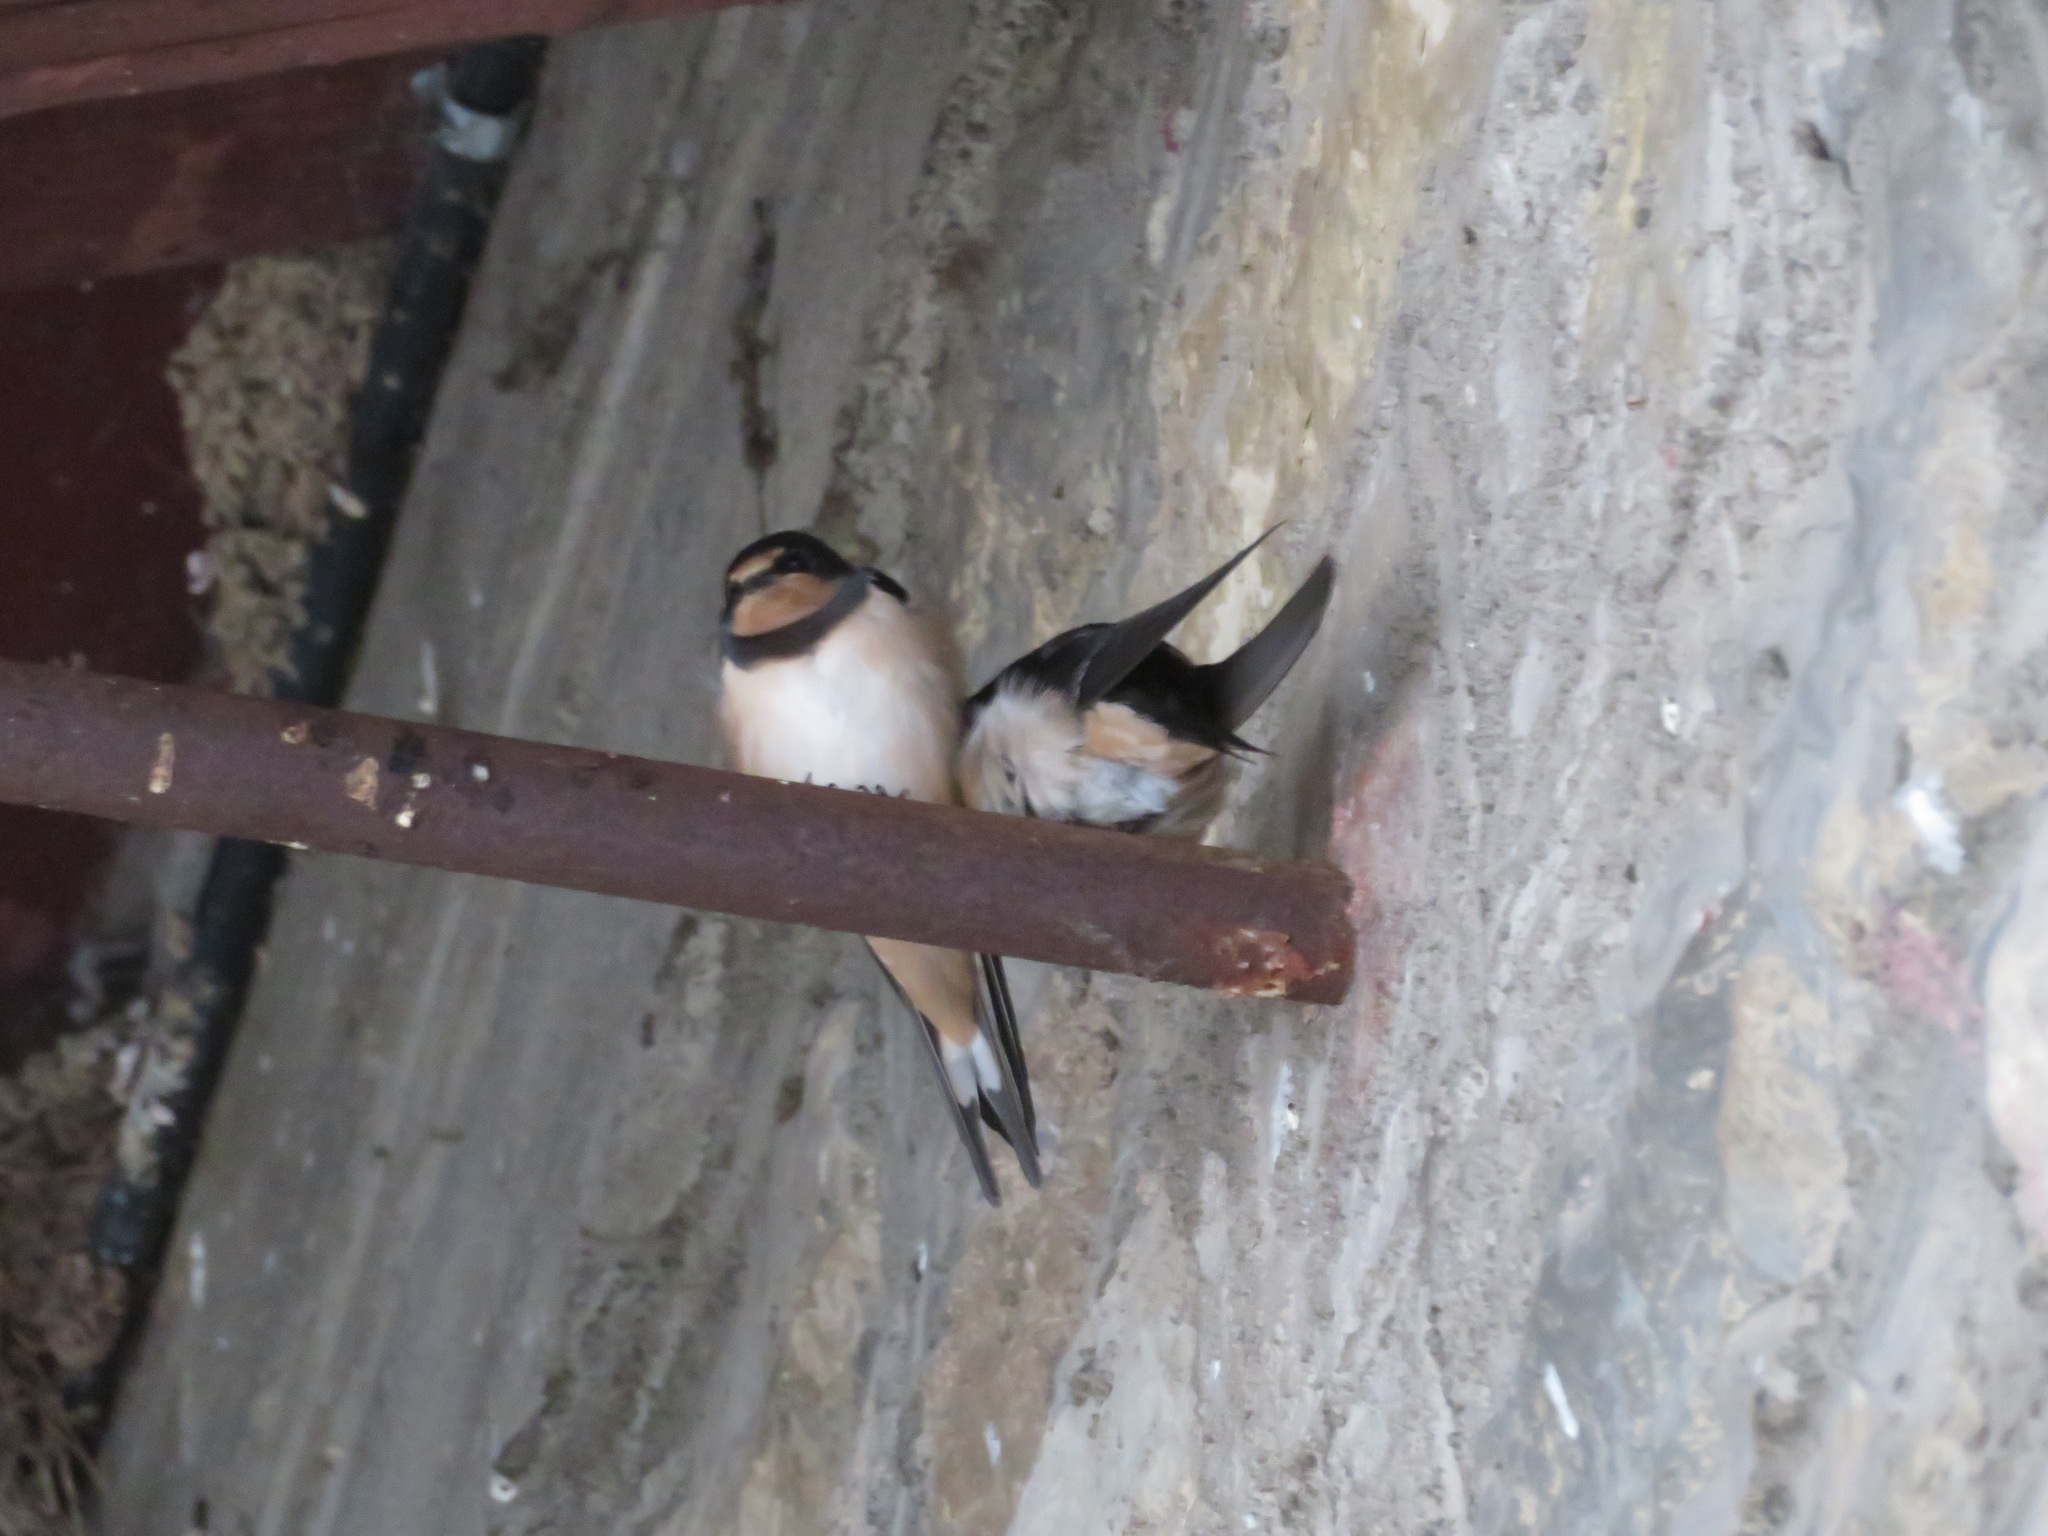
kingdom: Animalia
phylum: Chordata
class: Aves
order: Passeriformes
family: Hirundinidae
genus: Hirundo
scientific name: Hirundo rustica
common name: Barn swallow
